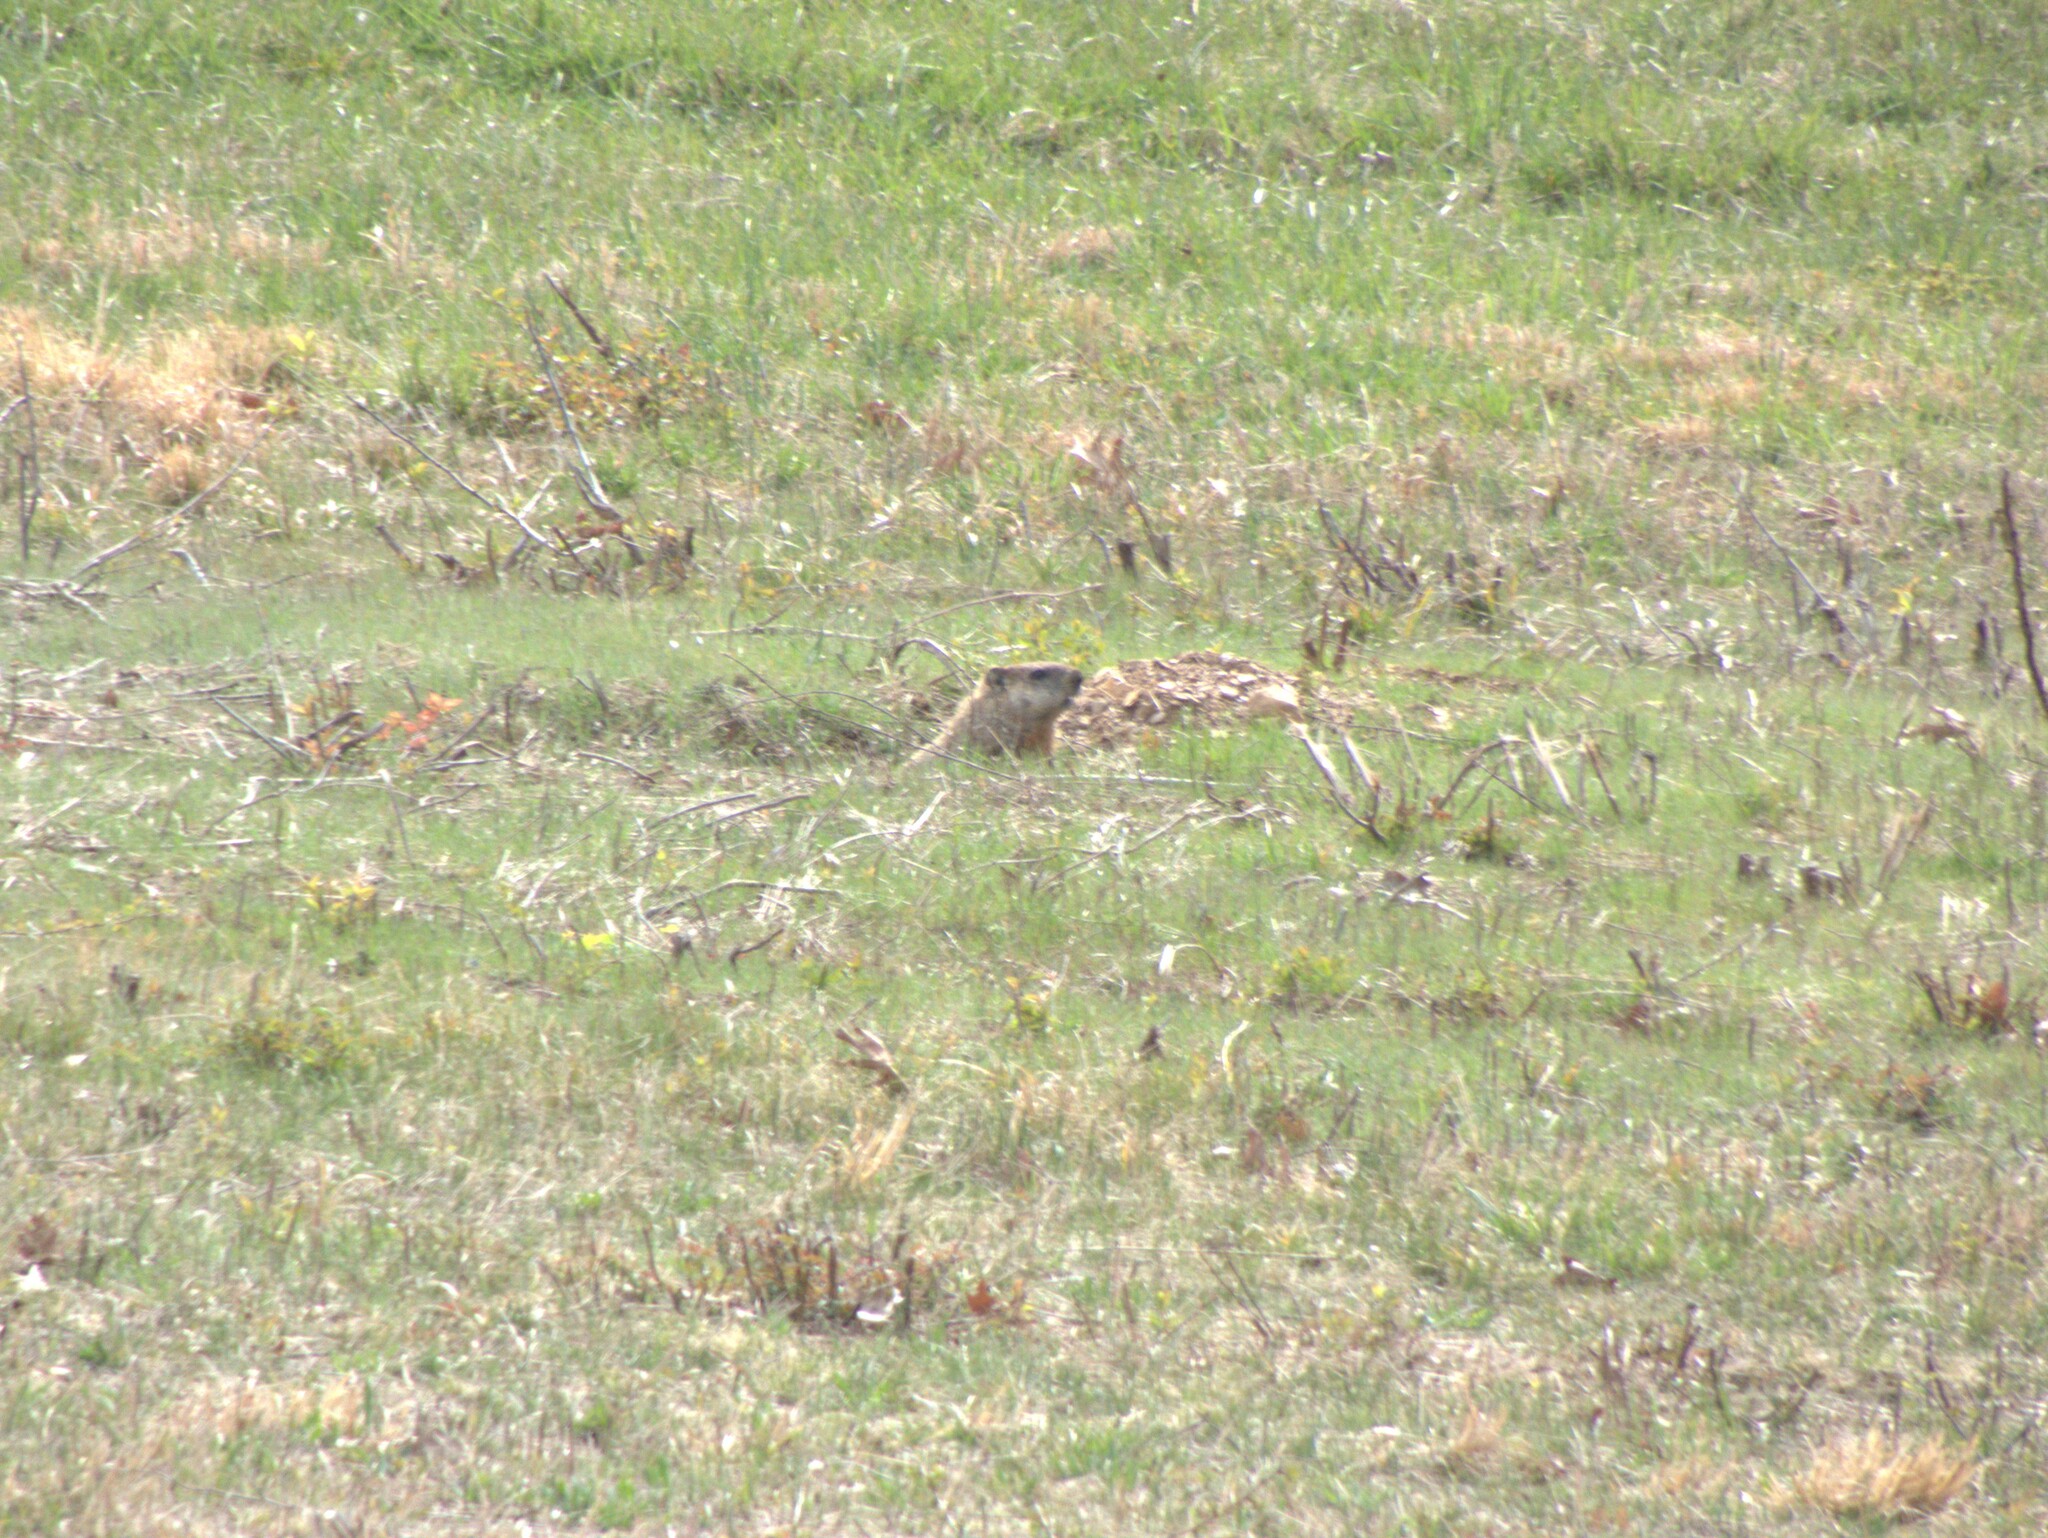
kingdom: Animalia
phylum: Chordata
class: Mammalia
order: Rodentia
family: Sciuridae
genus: Marmota
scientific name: Marmota monax
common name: Groundhog
